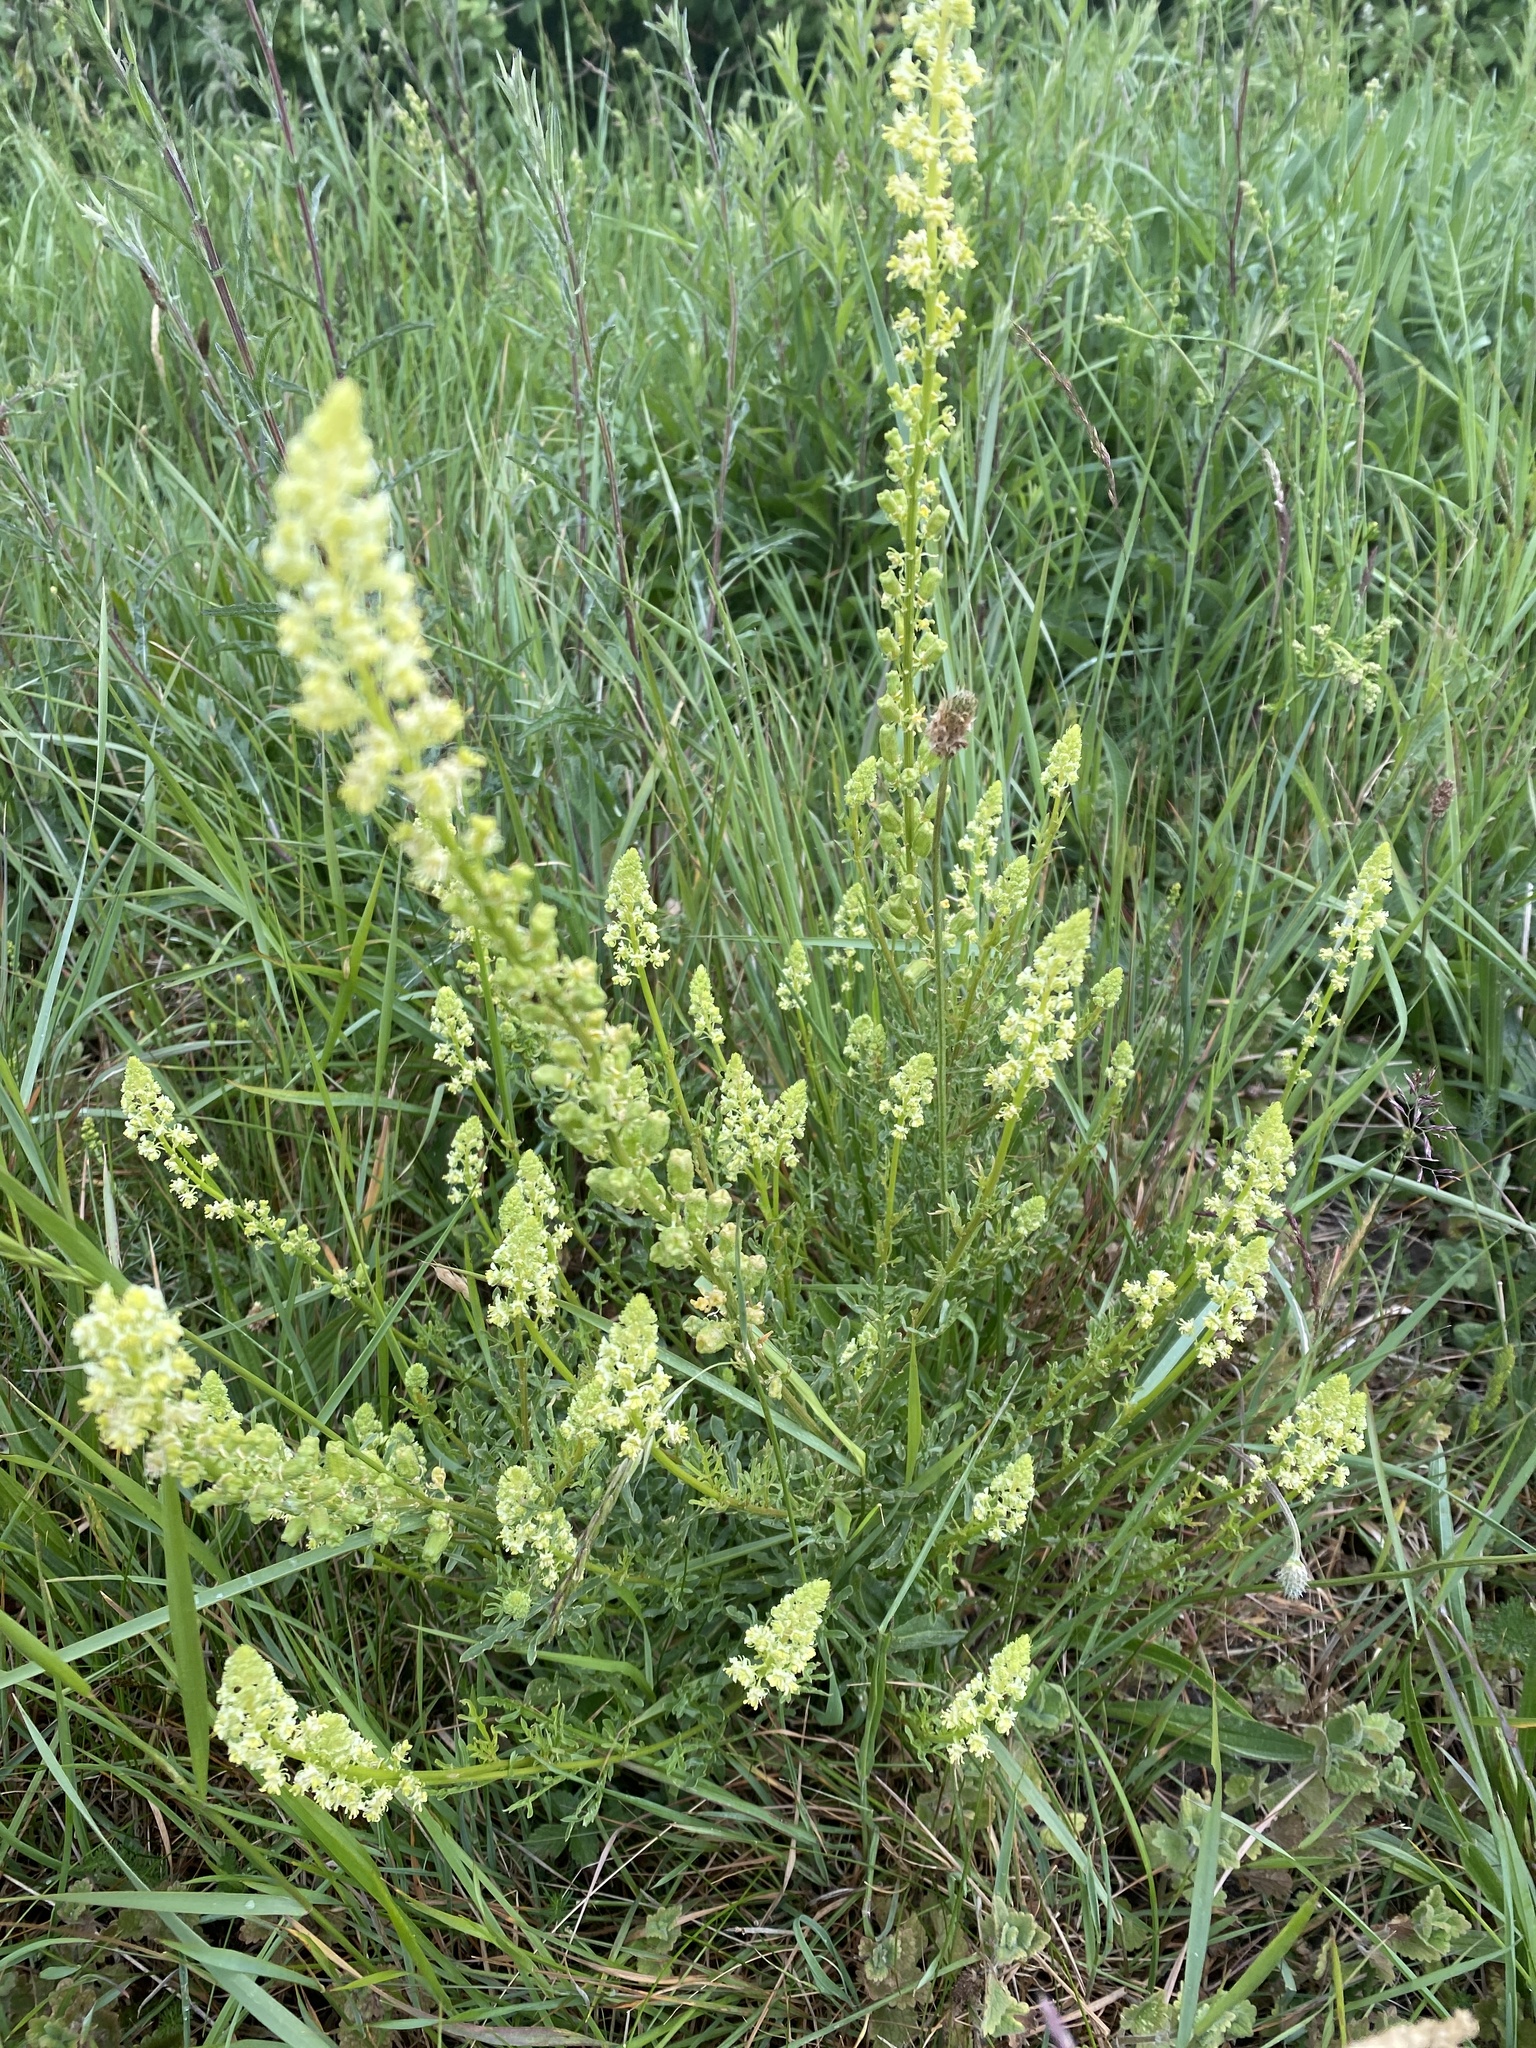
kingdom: Plantae
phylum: Tracheophyta
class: Magnoliopsida
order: Brassicales
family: Resedaceae
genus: Reseda
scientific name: Reseda lutea
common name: Wild mignonette
